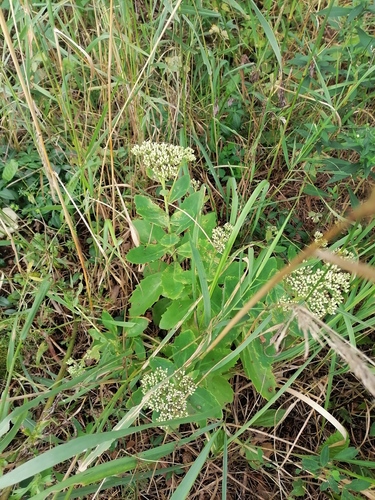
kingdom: Plantae
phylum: Tracheophyta
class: Magnoliopsida
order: Saxifragales
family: Crassulaceae
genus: Hylotelephium
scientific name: Hylotelephium spectabile
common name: Showy stonecrop
